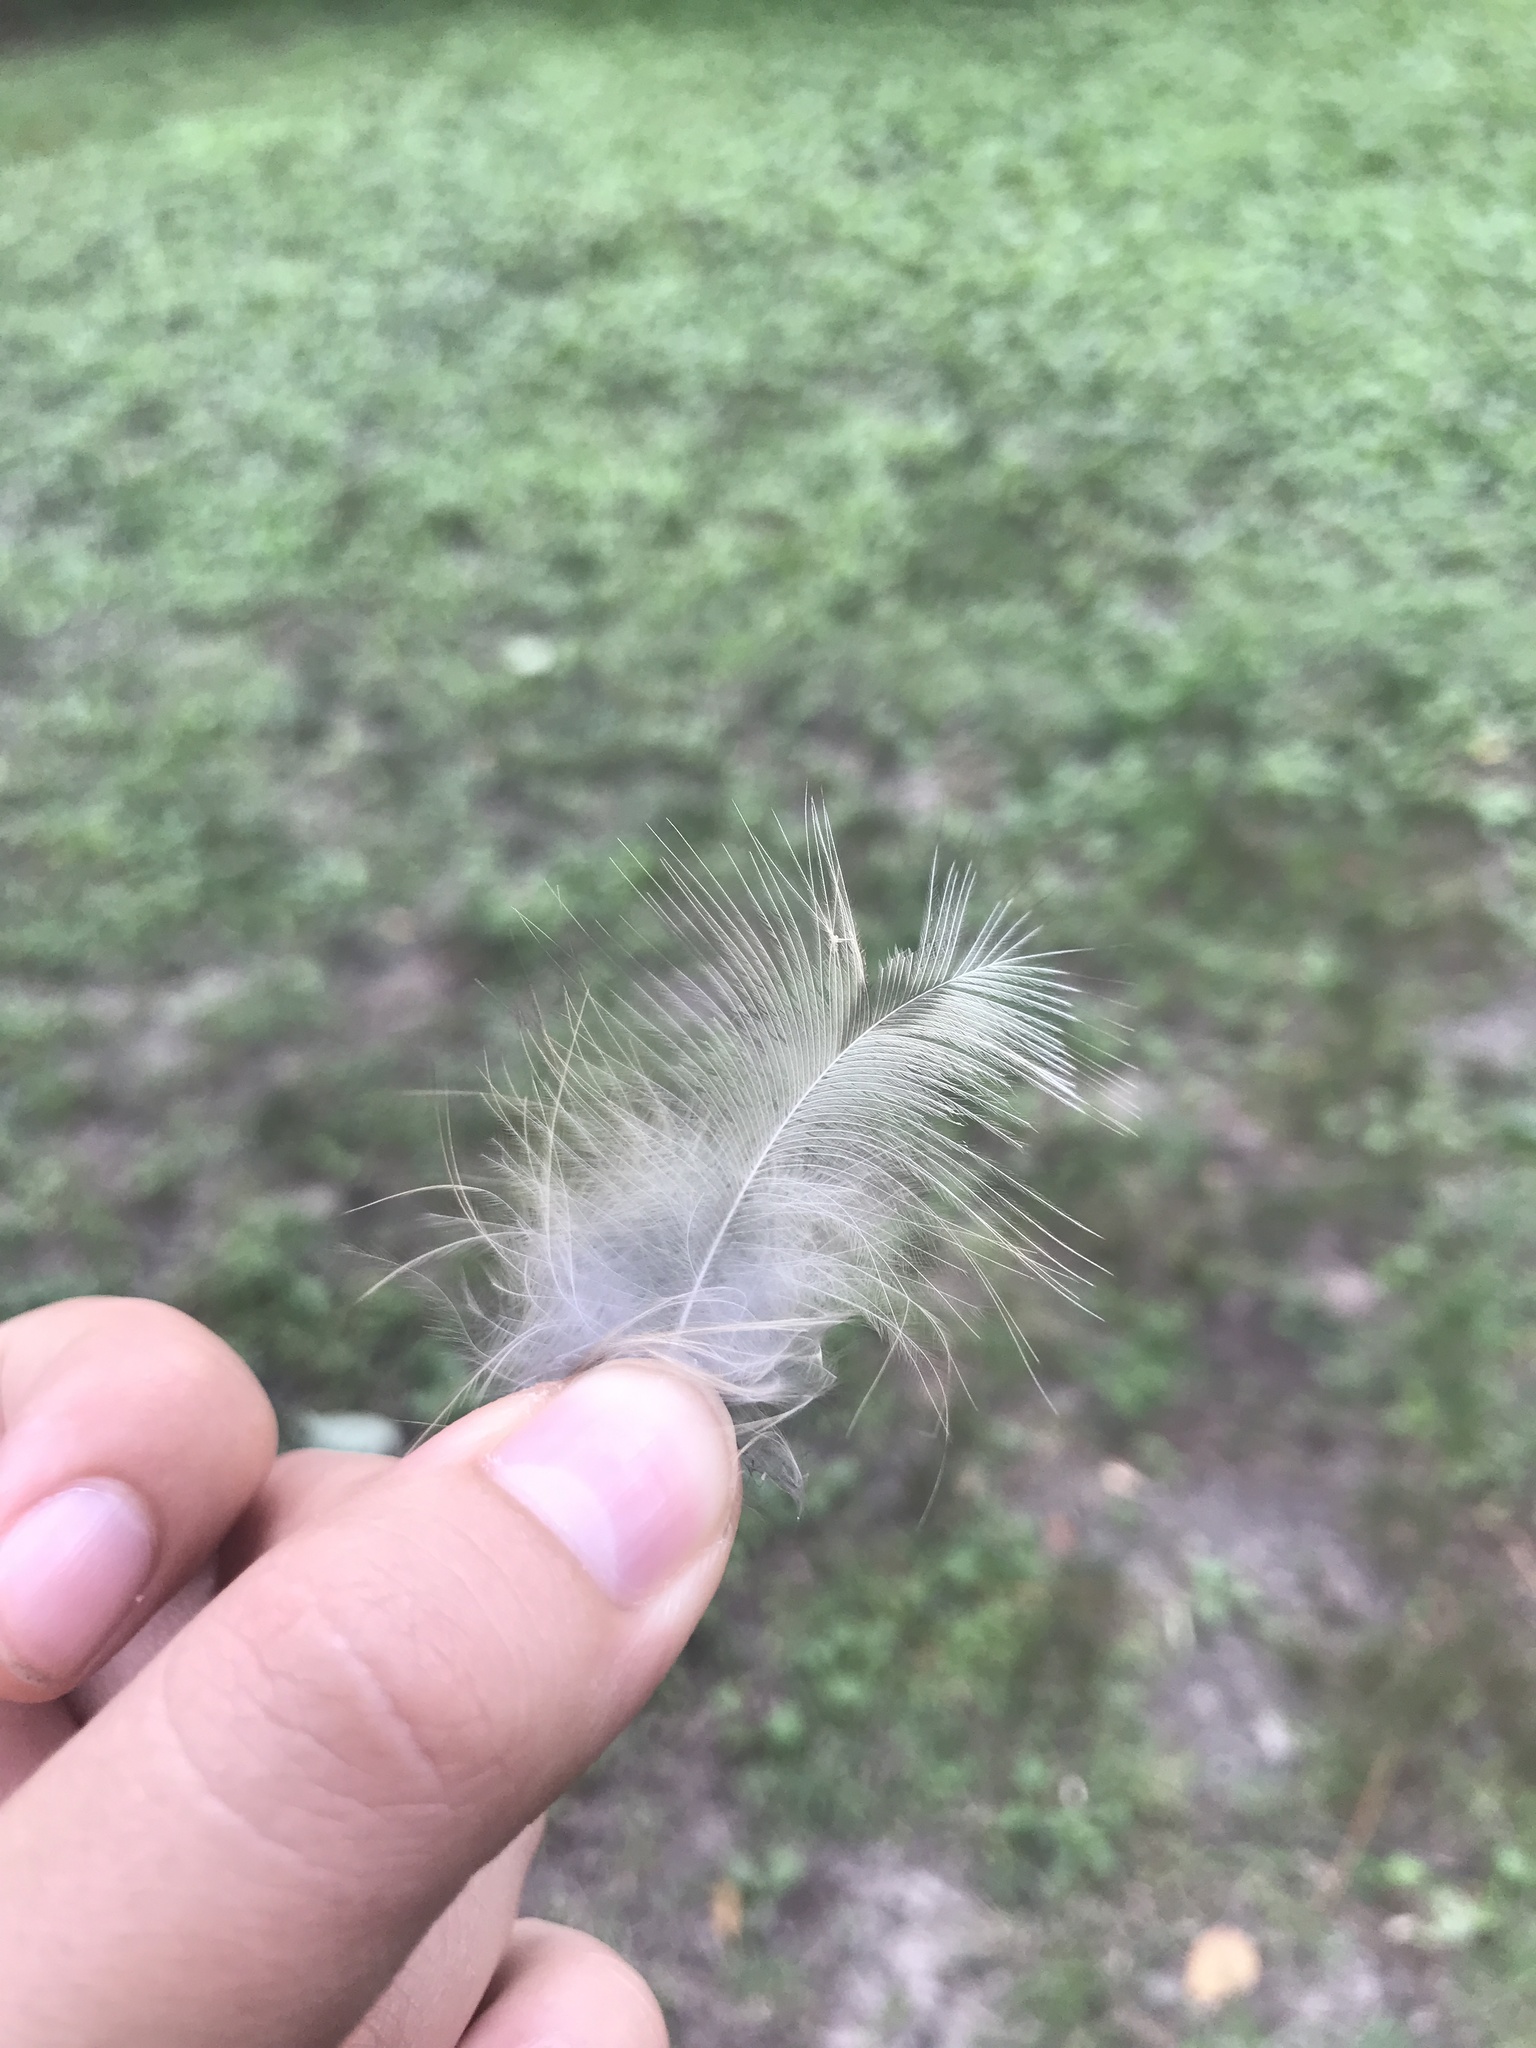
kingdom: Animalia
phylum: Chordata
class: Aves
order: Strigiformes
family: Strigidae
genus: Strix
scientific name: Strix varia
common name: Barred owl
